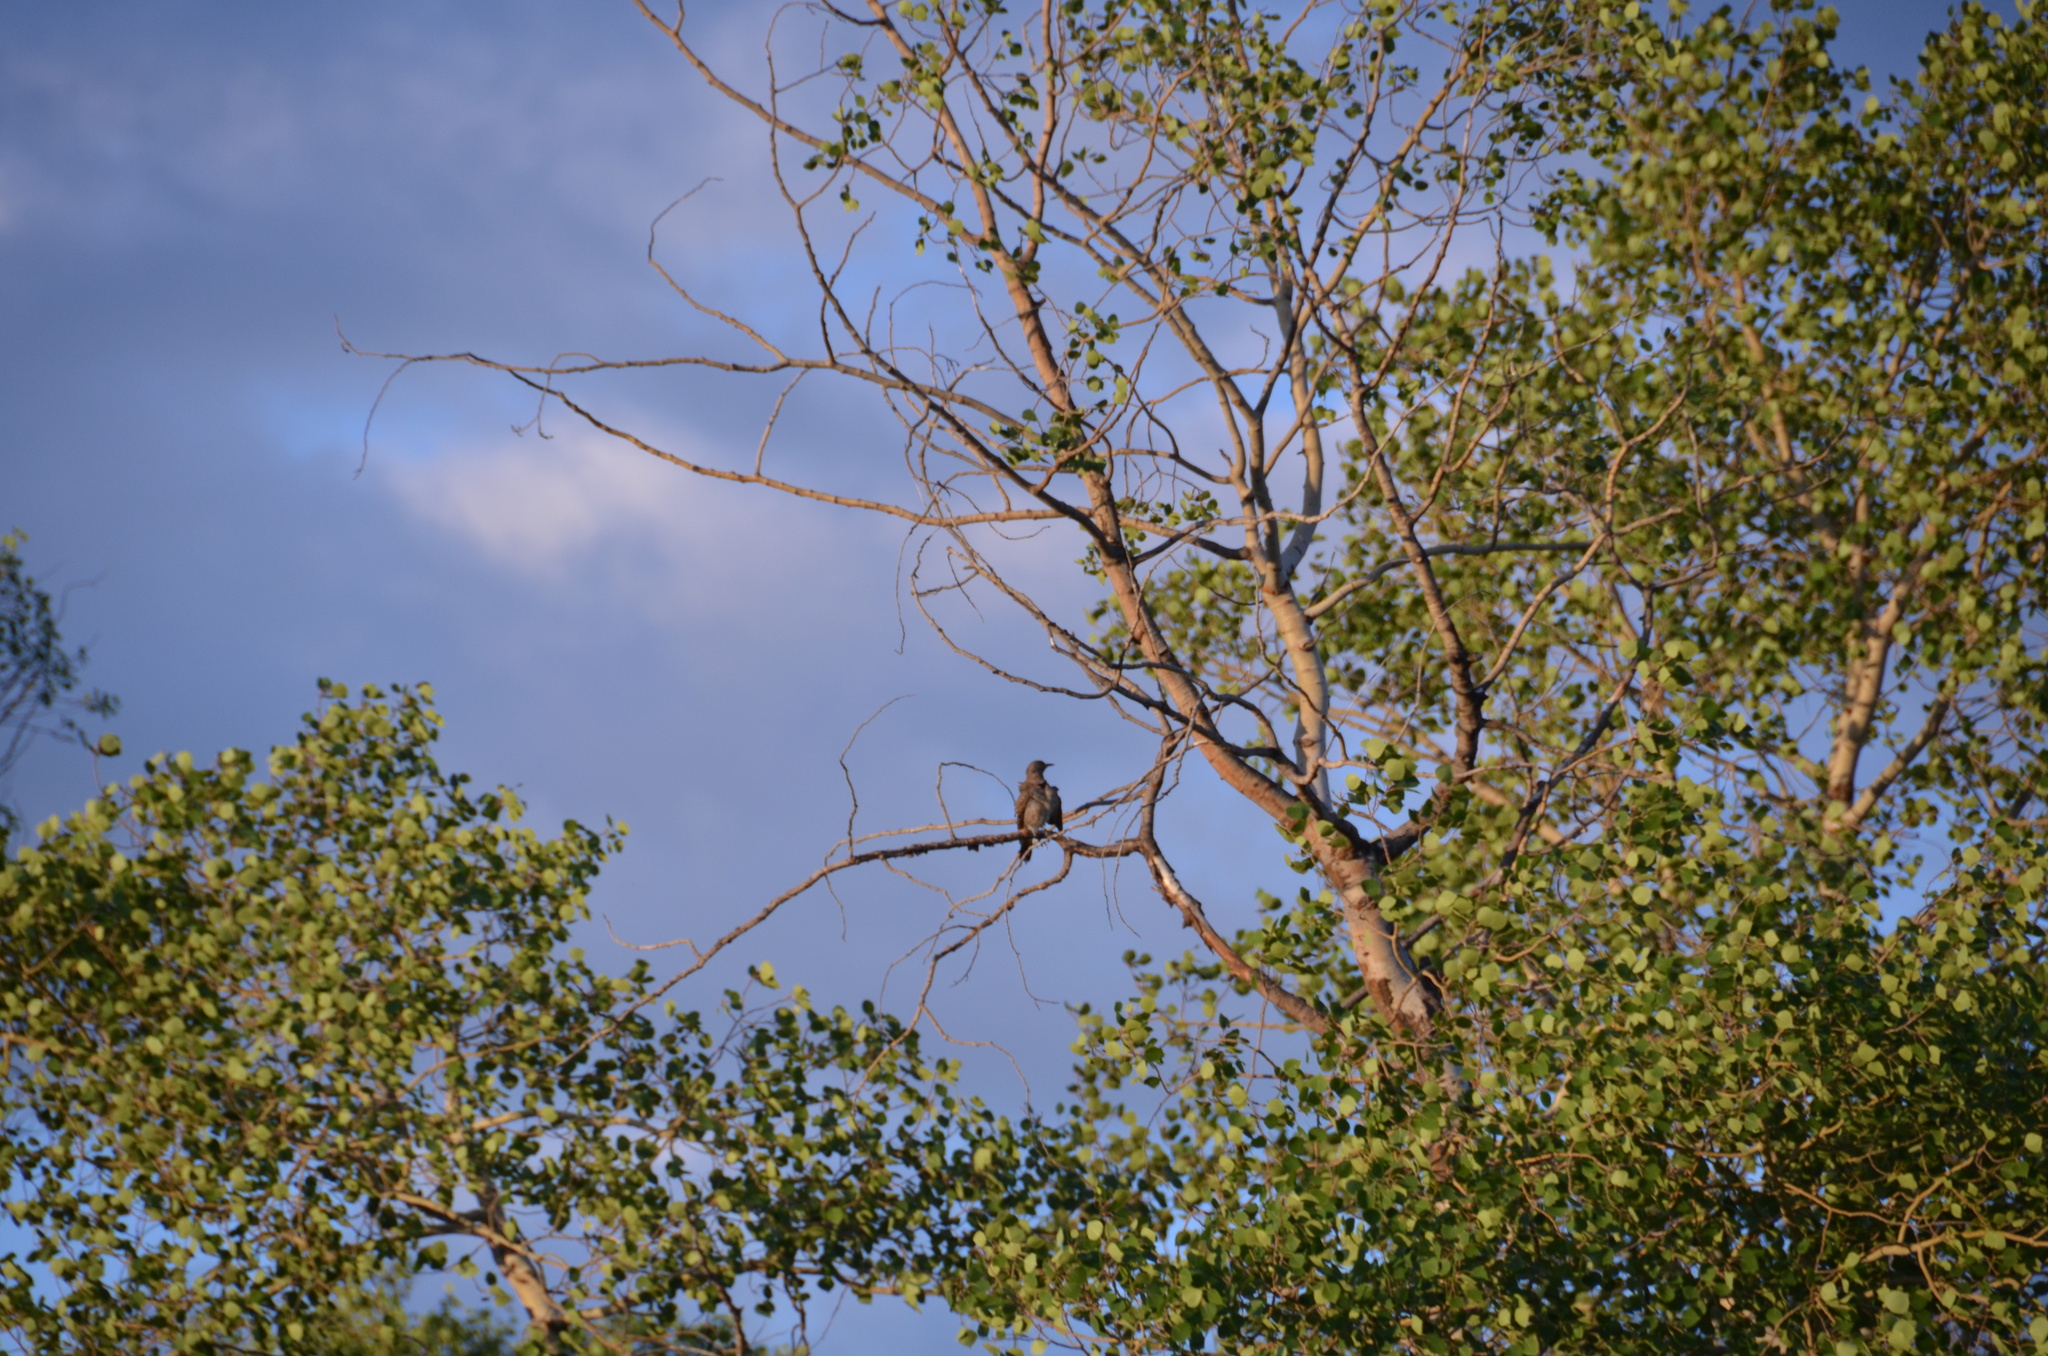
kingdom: Animalia
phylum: Chordata
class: Aves
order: Piciformes
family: Picidae
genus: Colaptes
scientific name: Colaptes auratus
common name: Northern flicker
